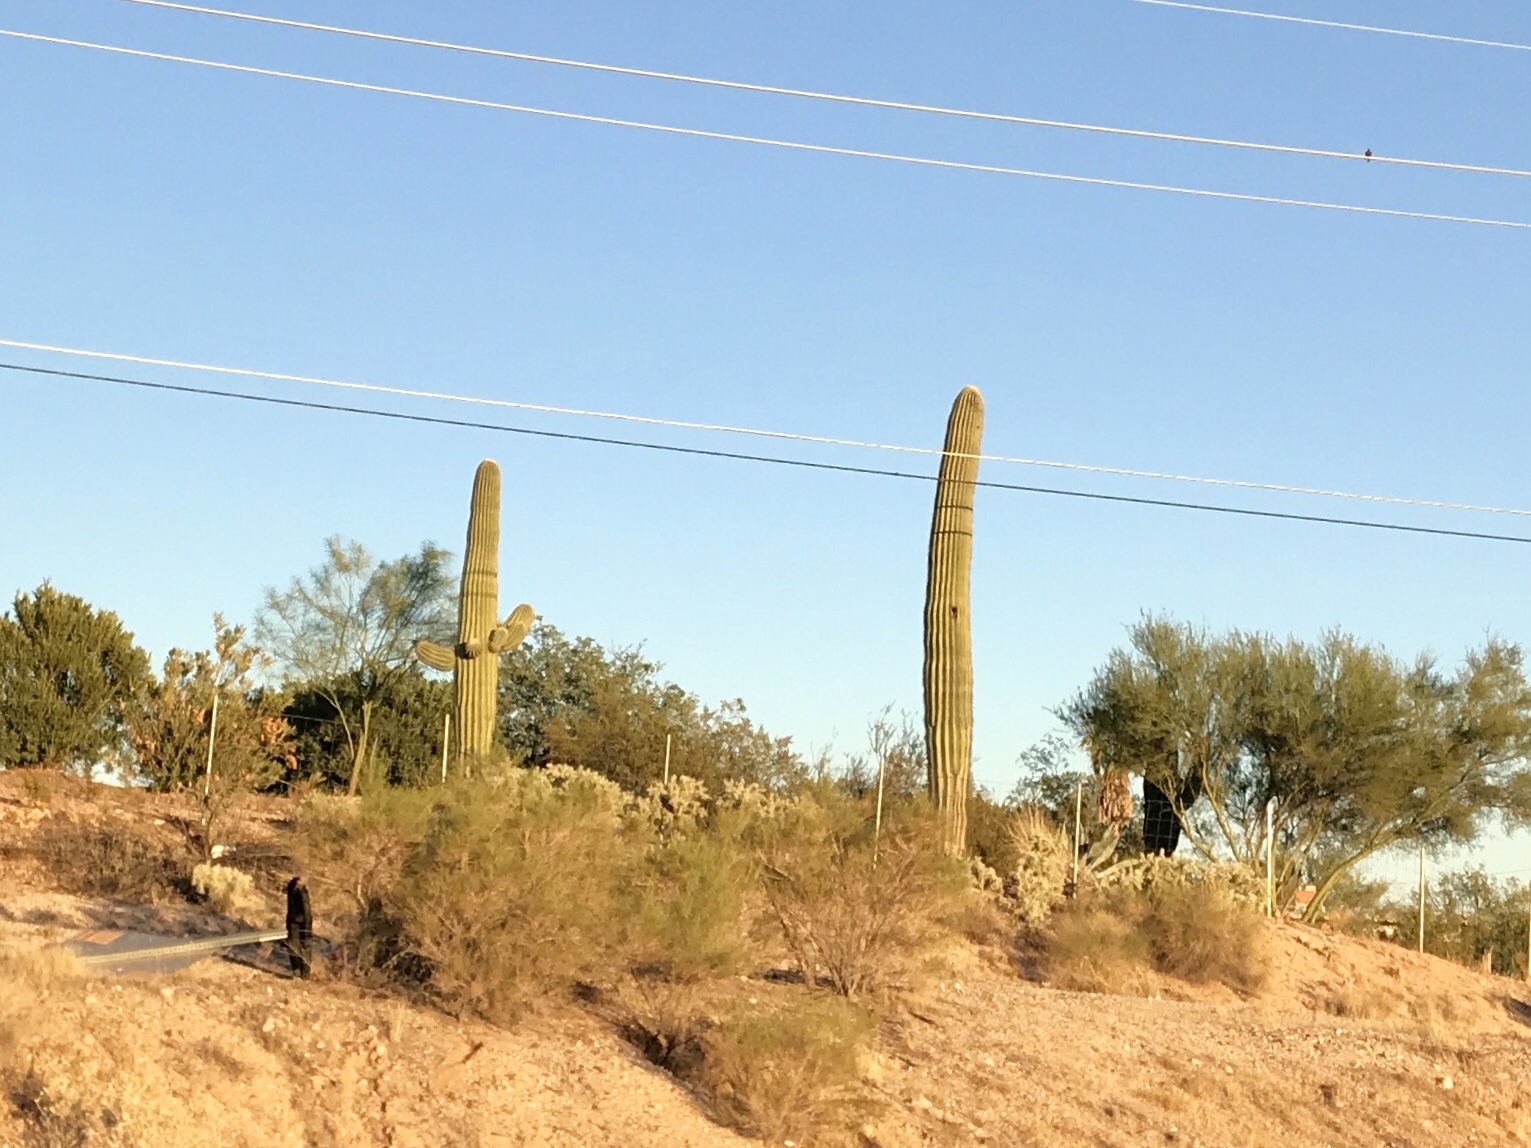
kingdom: Plantae
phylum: Tracheophyta
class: Magnoliopsida
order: Caryophyllales
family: Cactaceae
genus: Carnegiea
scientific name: Carnegiea gigantea
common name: Saguaro
